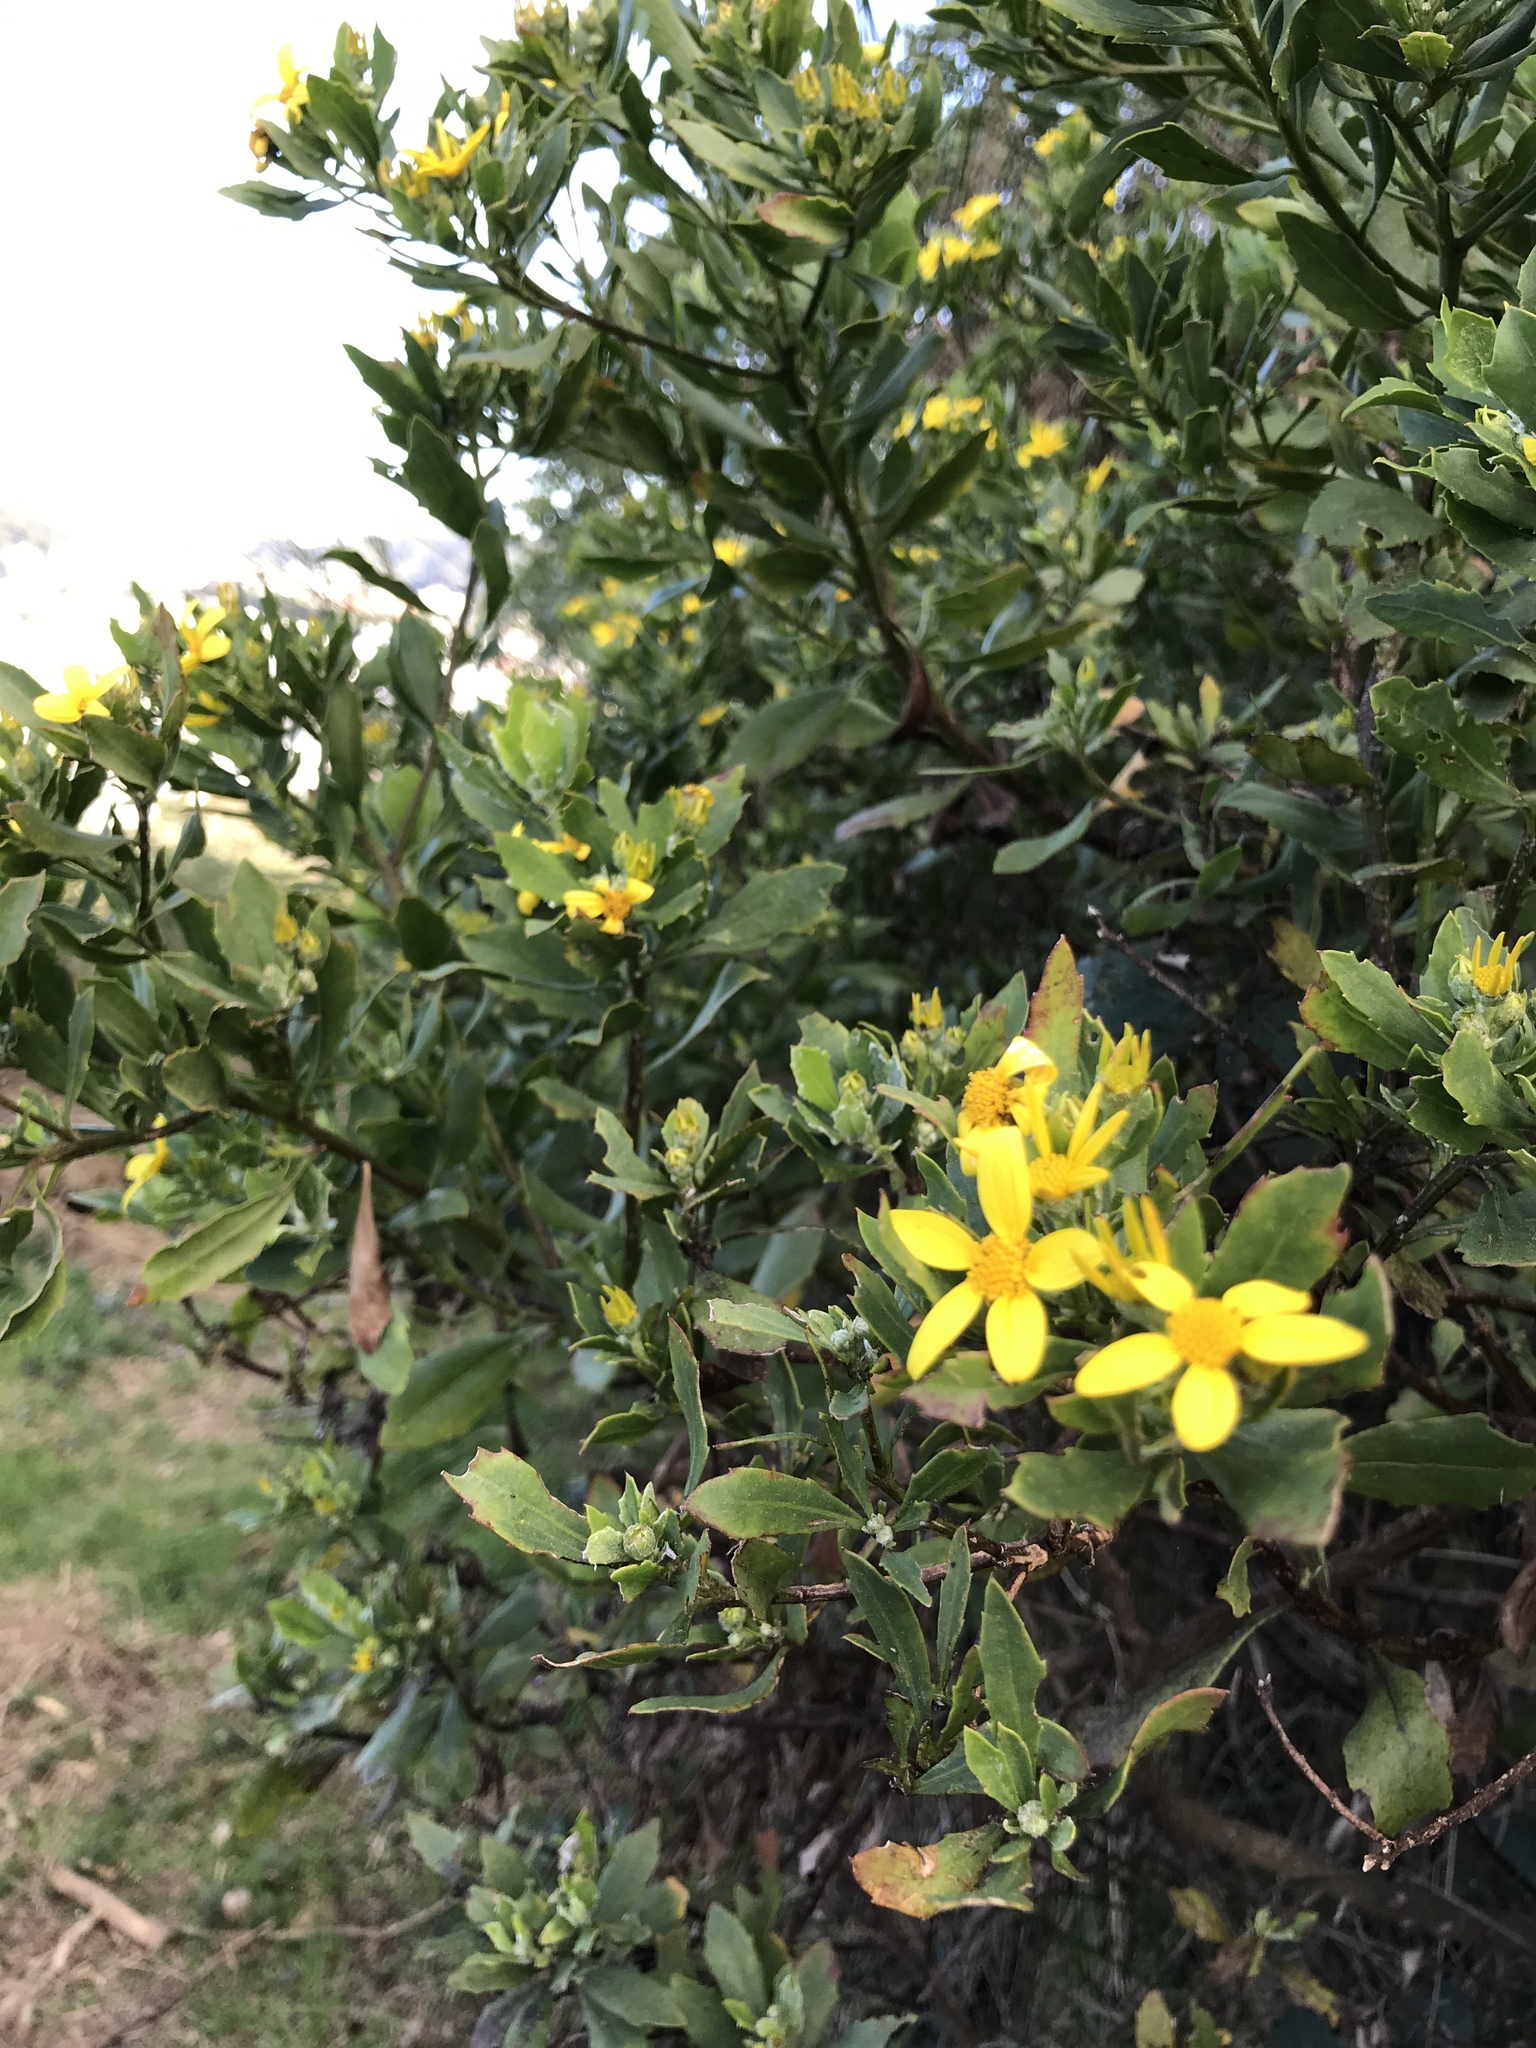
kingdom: Plantae
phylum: Tracheophyta
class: Magnoliopsida
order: Asterales
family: Asteraceae
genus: Osteospermum
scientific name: Osteospermum moniliferum
